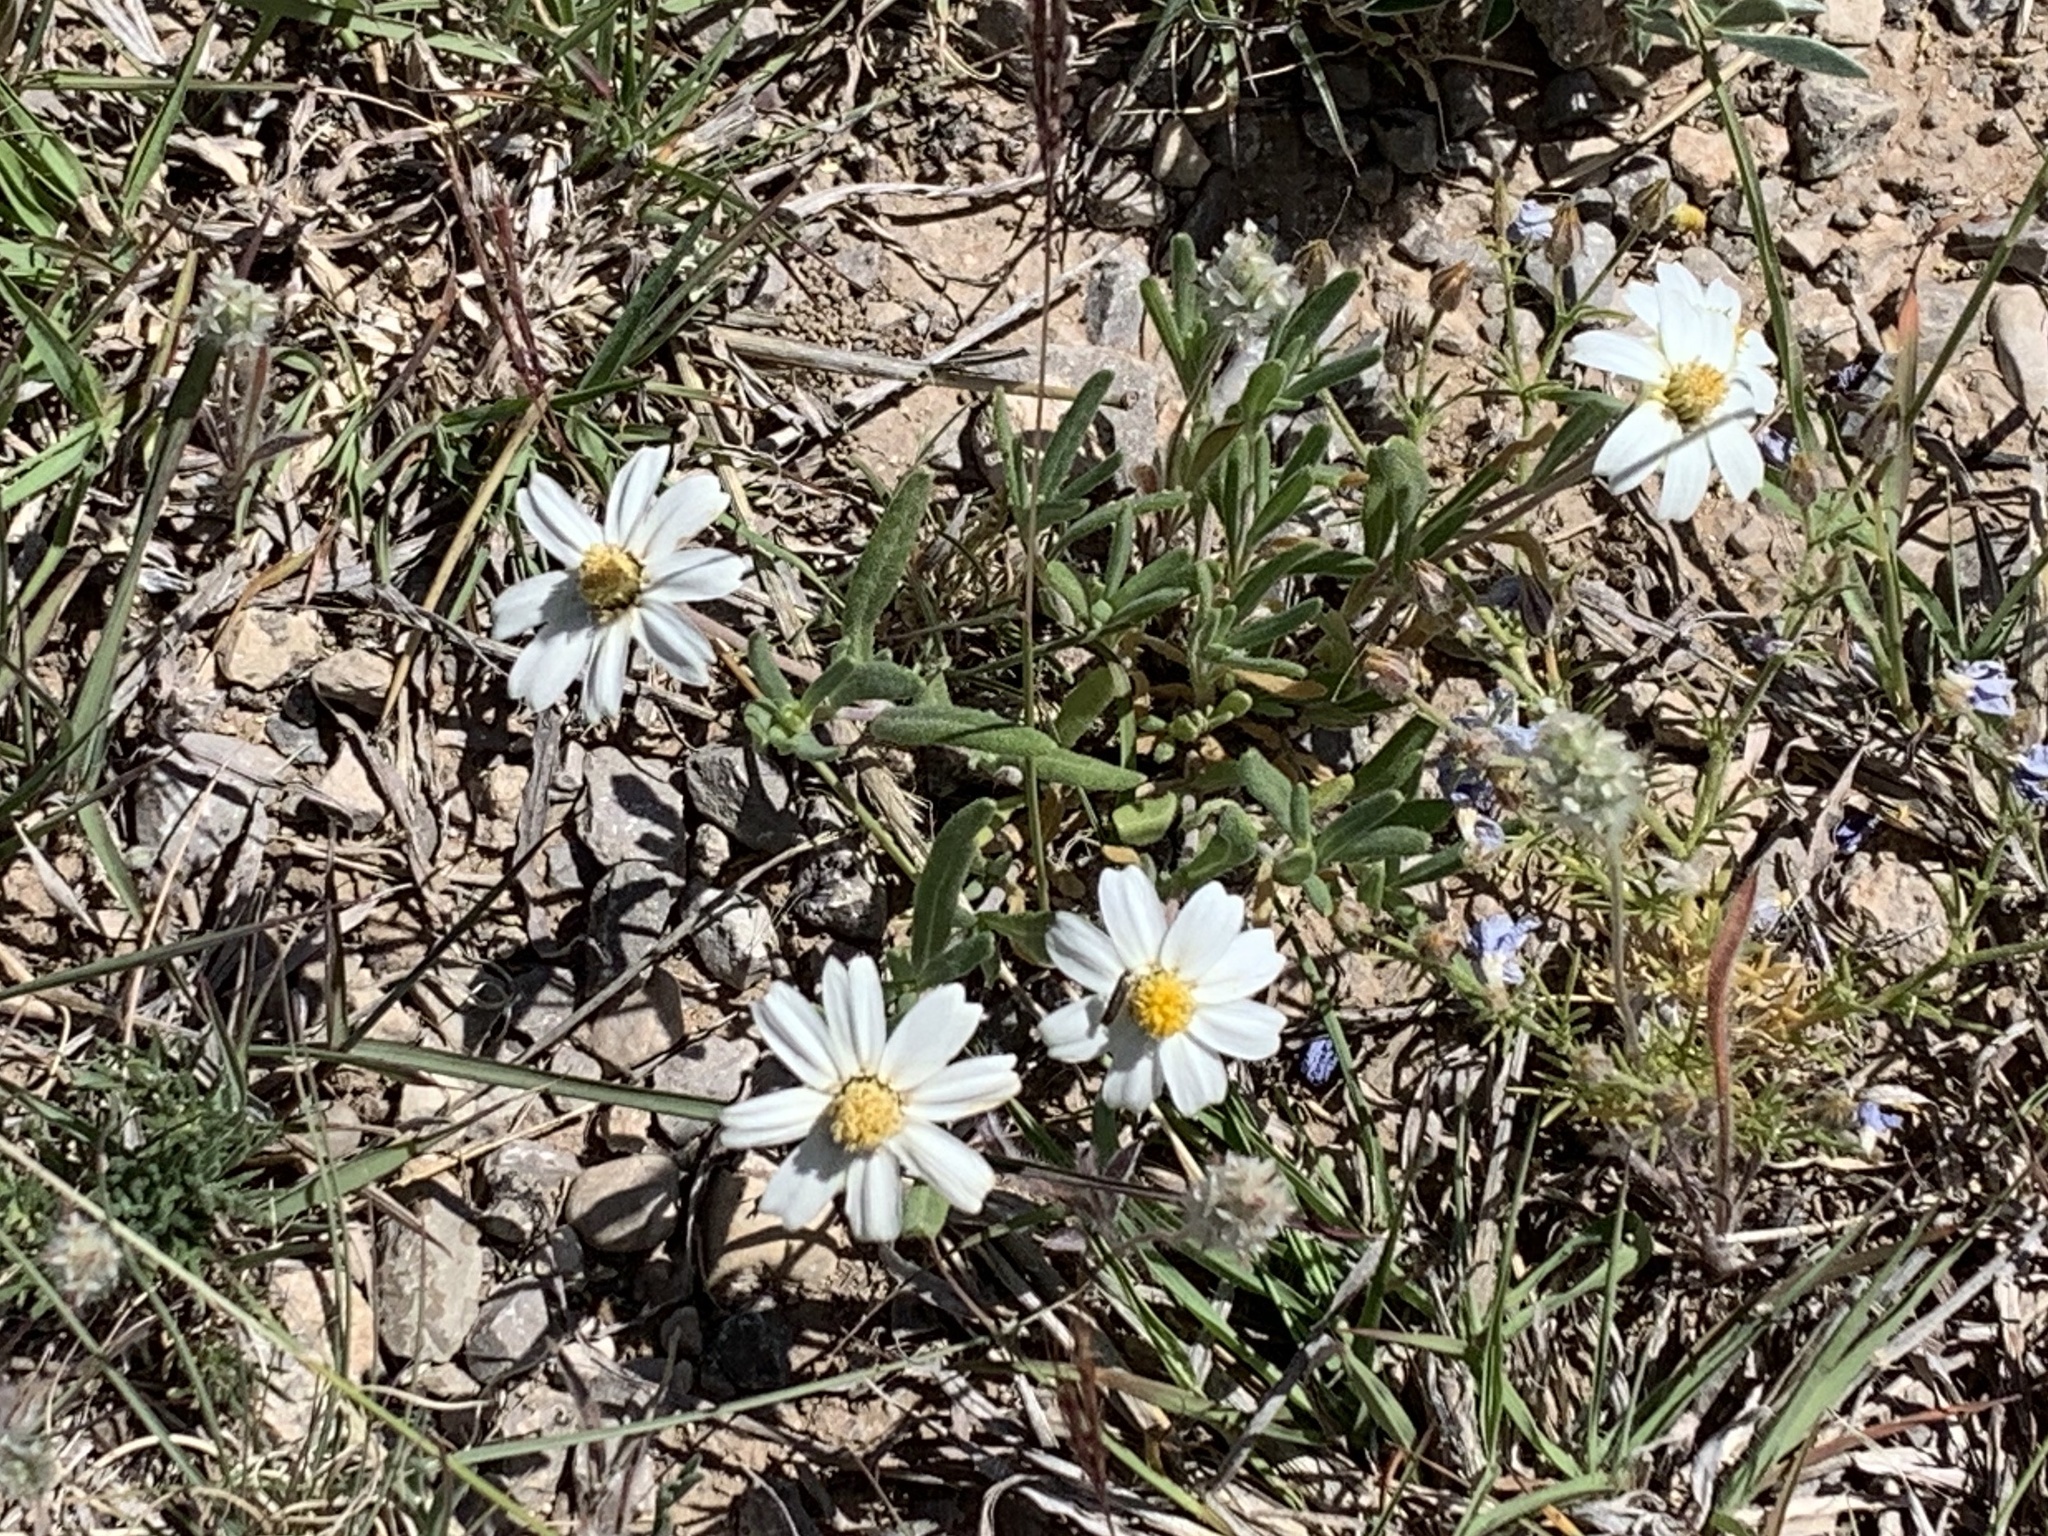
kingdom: Plantae
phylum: Tracheophyta
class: Magnoliopsida
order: Asterales
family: Asteraceae
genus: Melampodium
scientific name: Melampodium leucanthum
